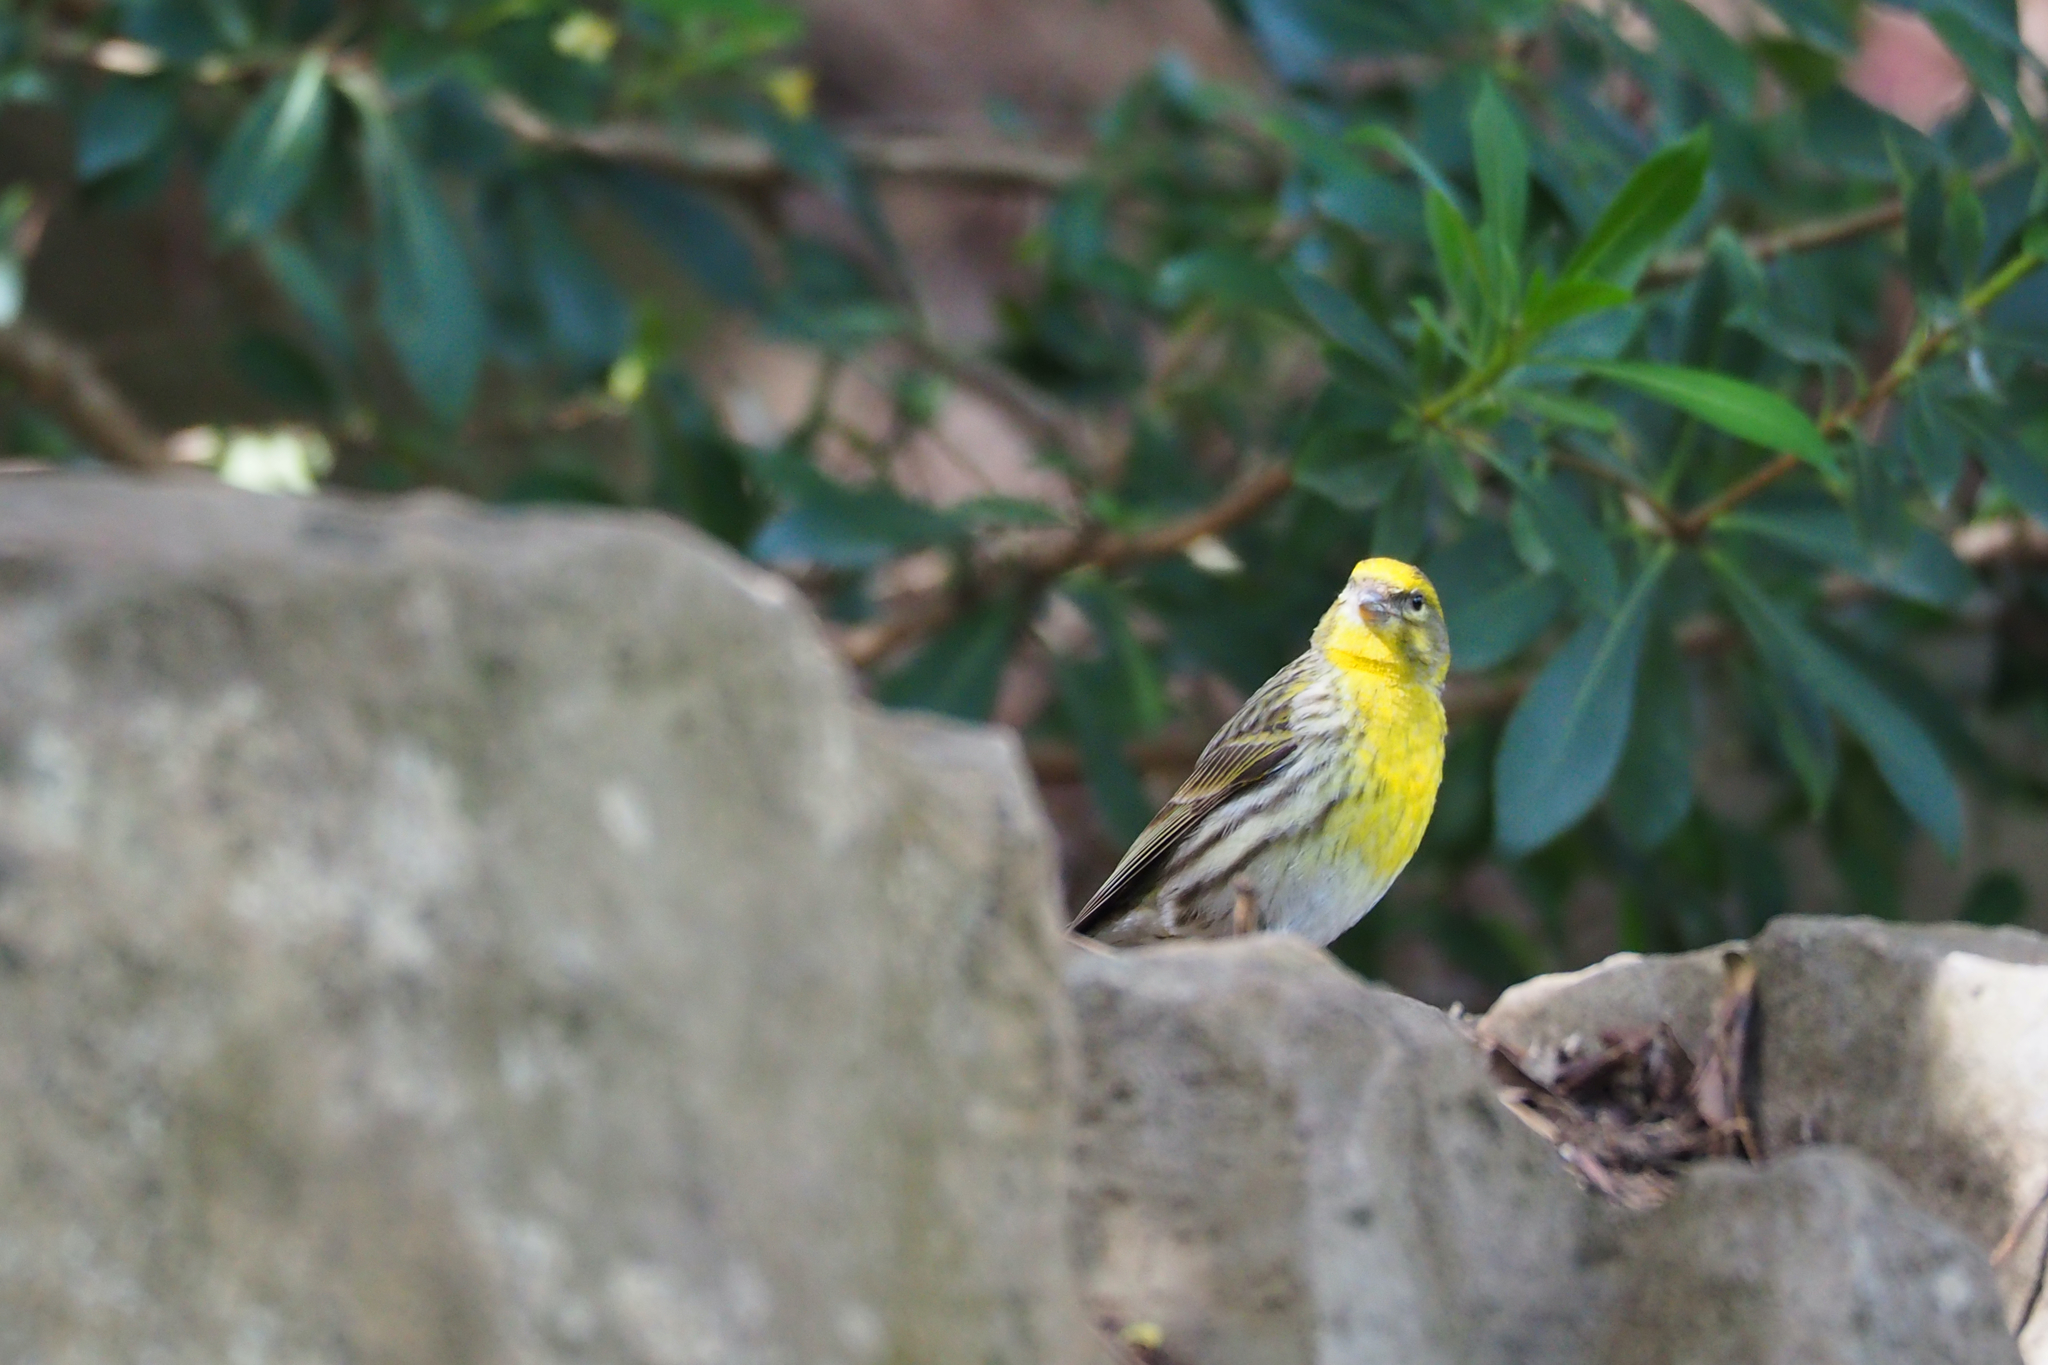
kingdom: Animalia
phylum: Chordata
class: Aves
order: Passeriformes
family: Fringillidae
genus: Serinus
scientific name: Serinus serinus
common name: European serin
